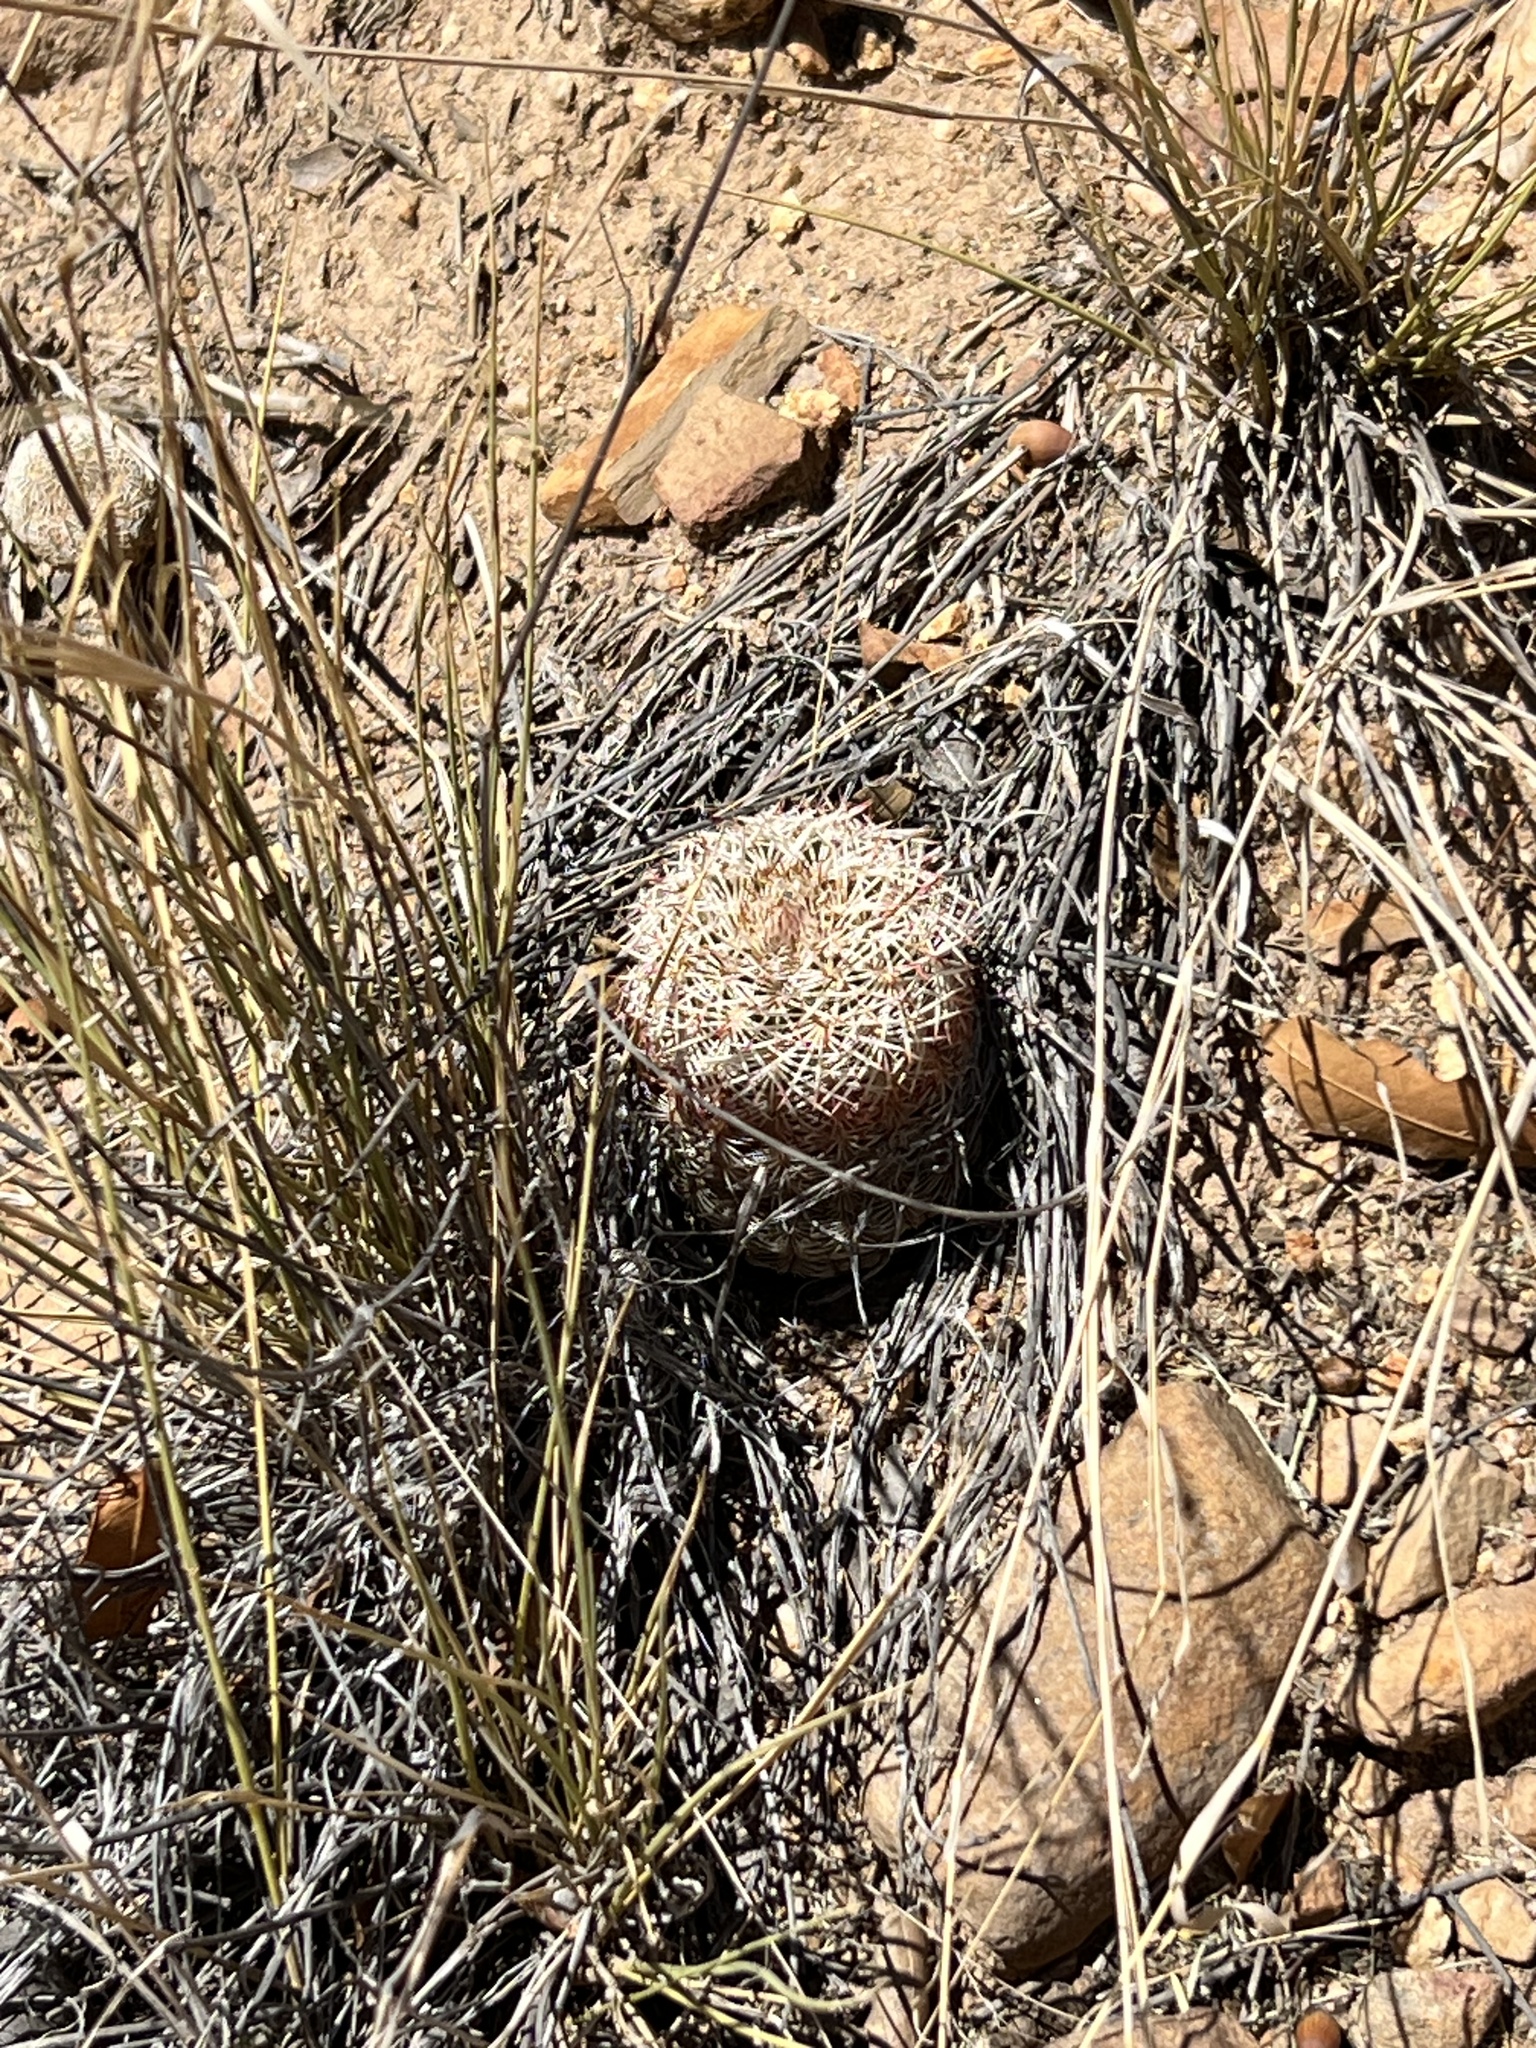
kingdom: Plantae
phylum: Tracheophyta
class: Magnoliopsida
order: Caryophyllales
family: Cactaceae
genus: Echinocereus
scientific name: Echinocereus rigidissimus
